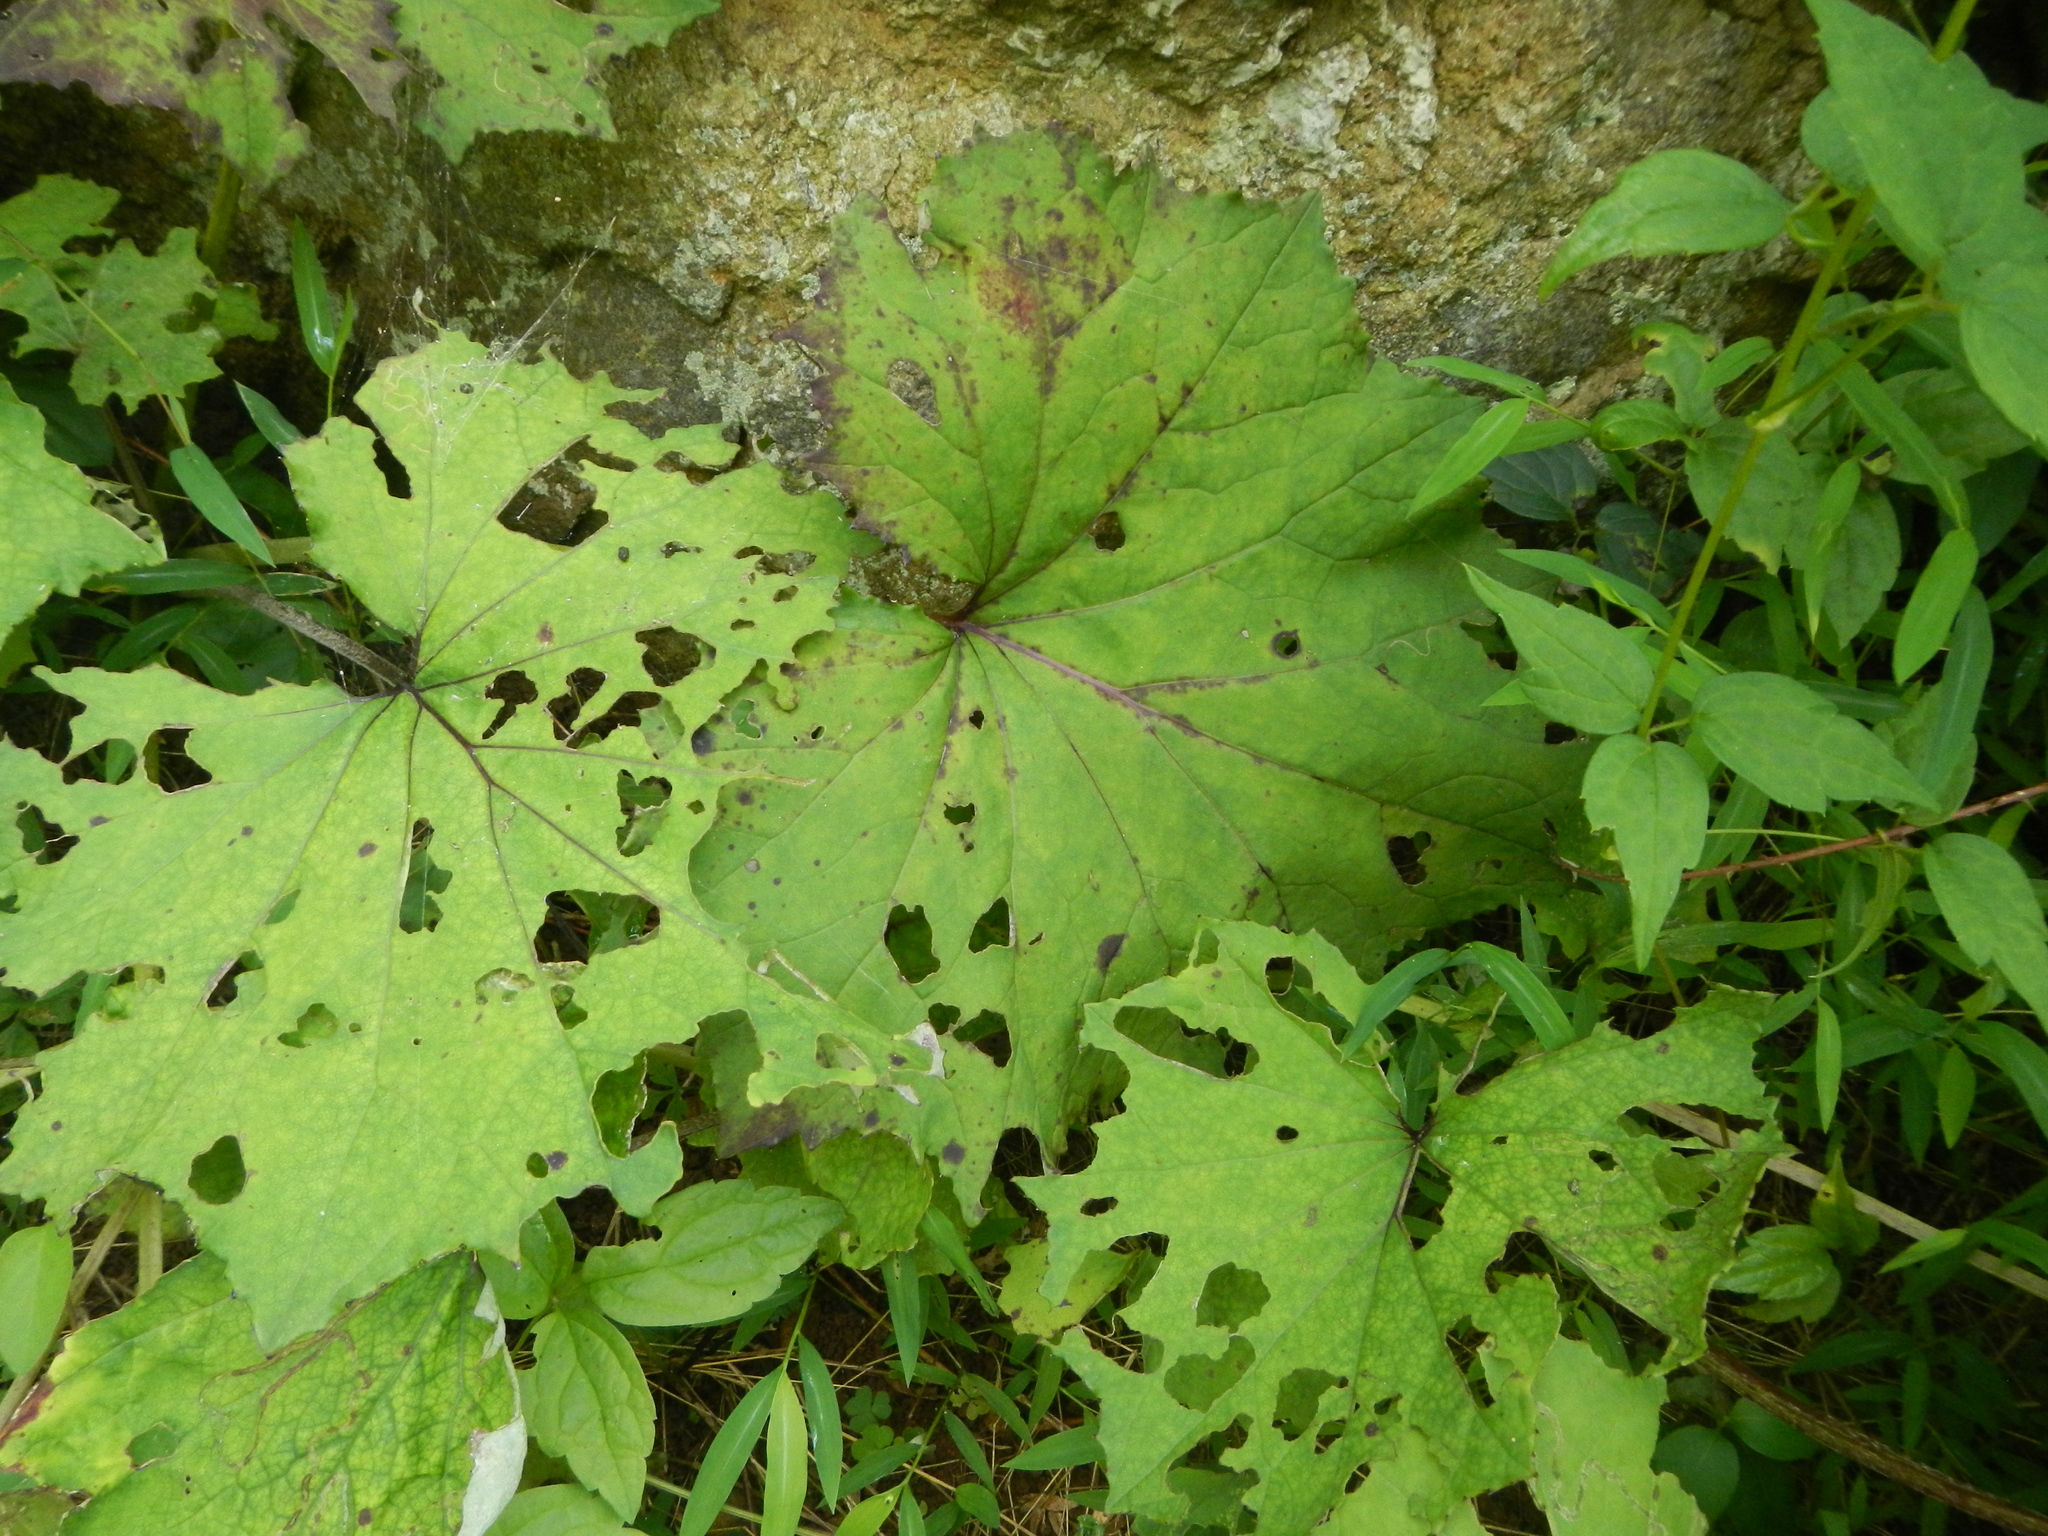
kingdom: Plantae
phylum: Tracheophyta
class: Magnoliopsida
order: Asterales
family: Asteraceae
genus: Tussilago
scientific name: Tussilago farfara
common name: Coltsfoot
